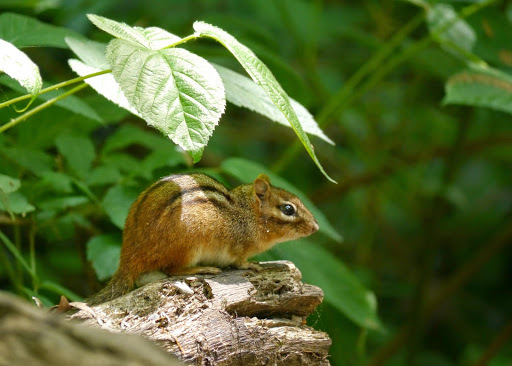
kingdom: Animalia
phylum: Chordata
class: Mammalia
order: Rodentia
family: Sciuridae
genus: Tamias
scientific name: Tamias striatus
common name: Eastern chipmunk
